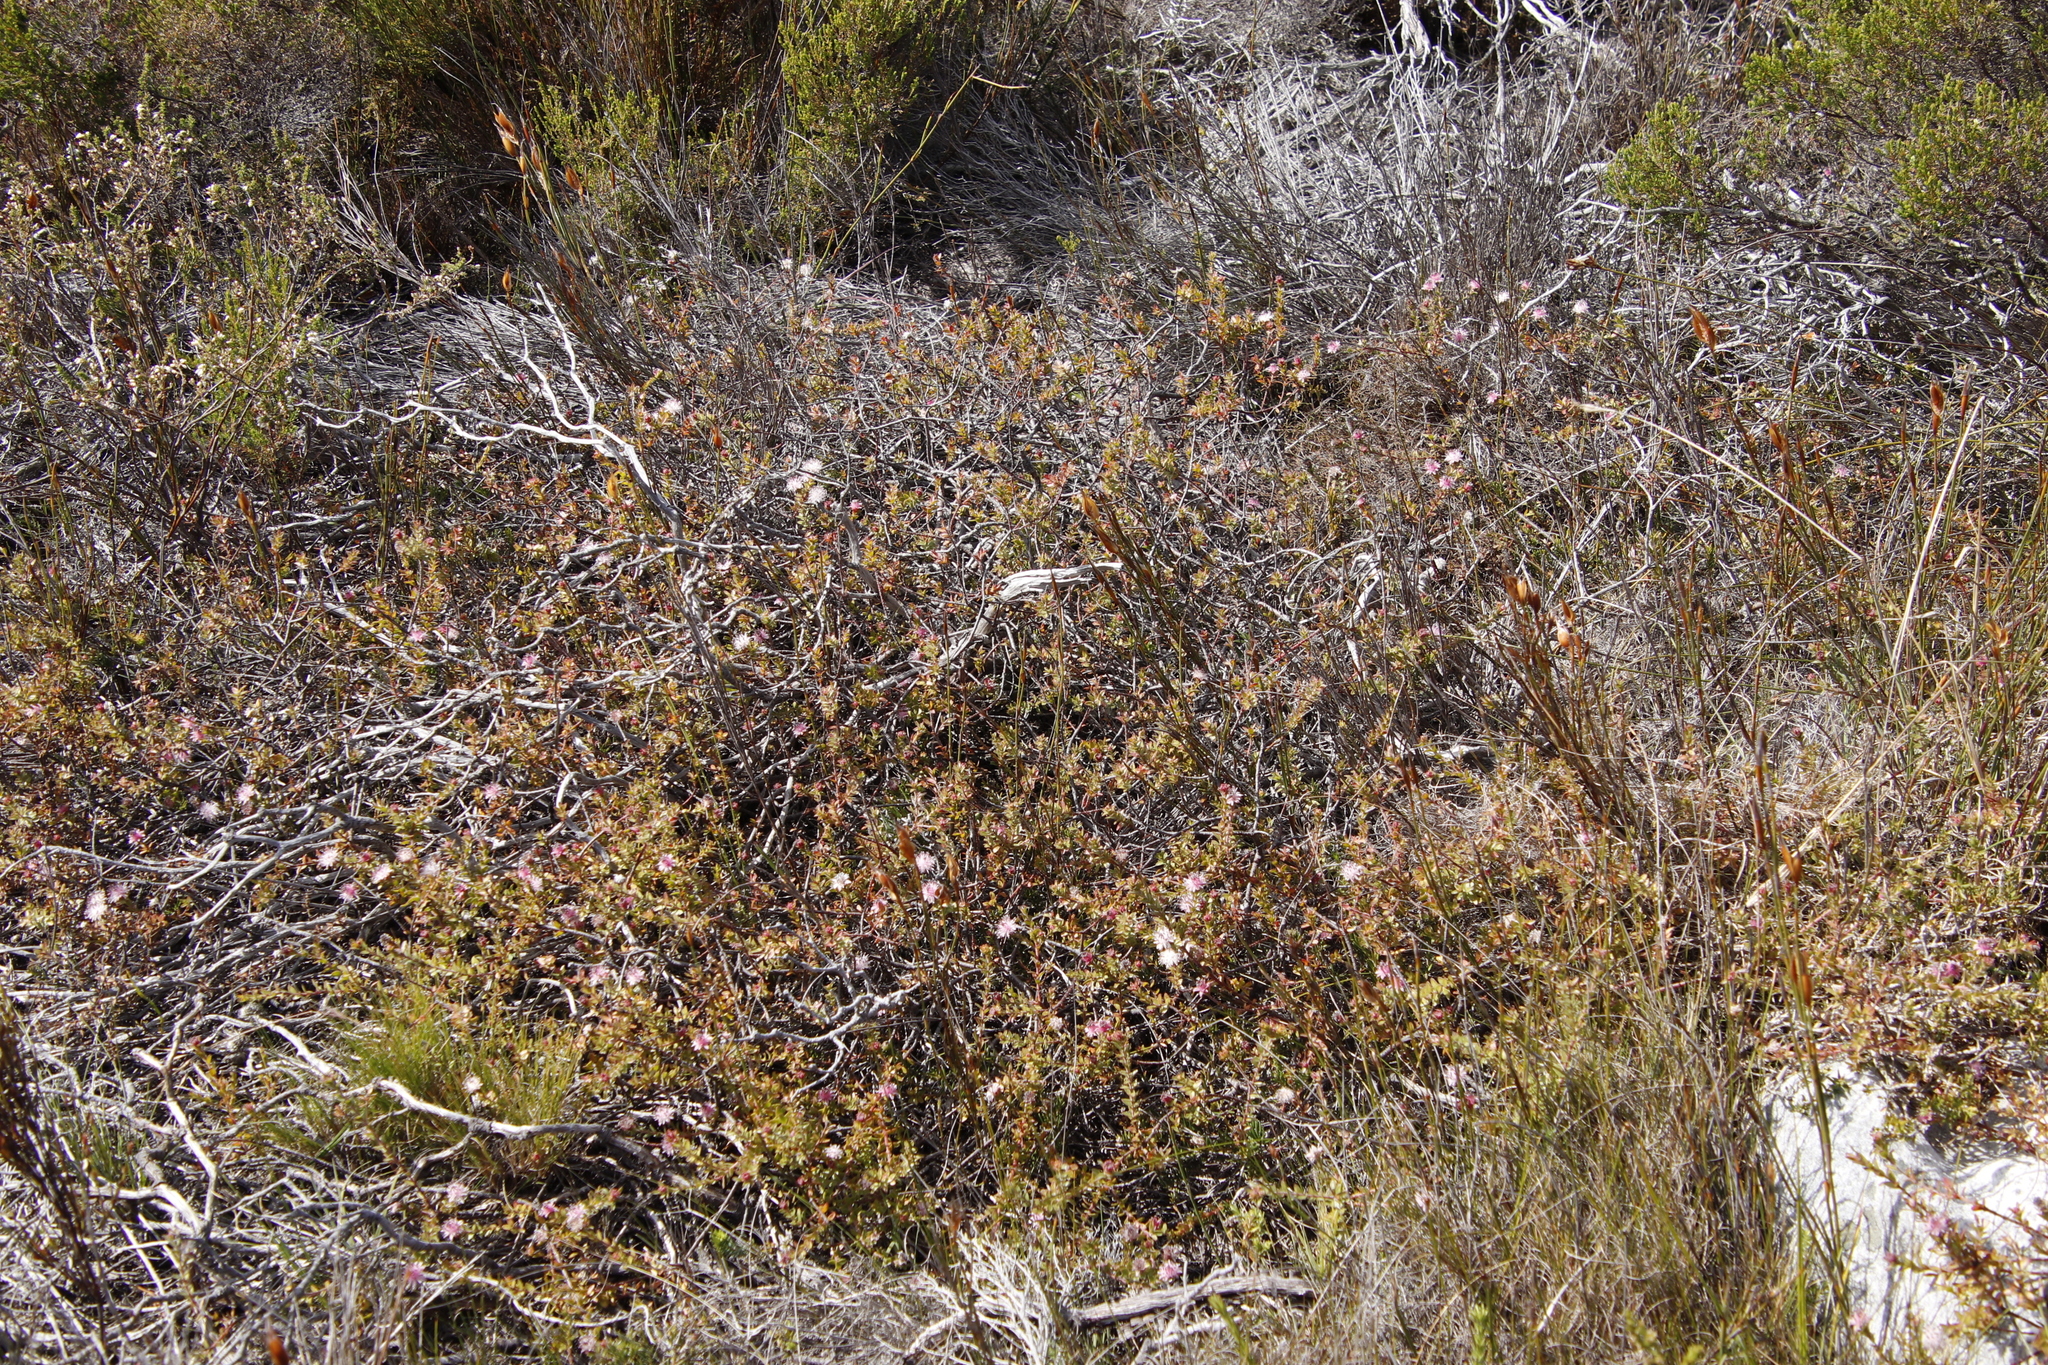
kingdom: Plantae
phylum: Tracheophyta
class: Magnoliopsida
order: Proteales
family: Proteaceae
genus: Diastella
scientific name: Diastella divaricata
